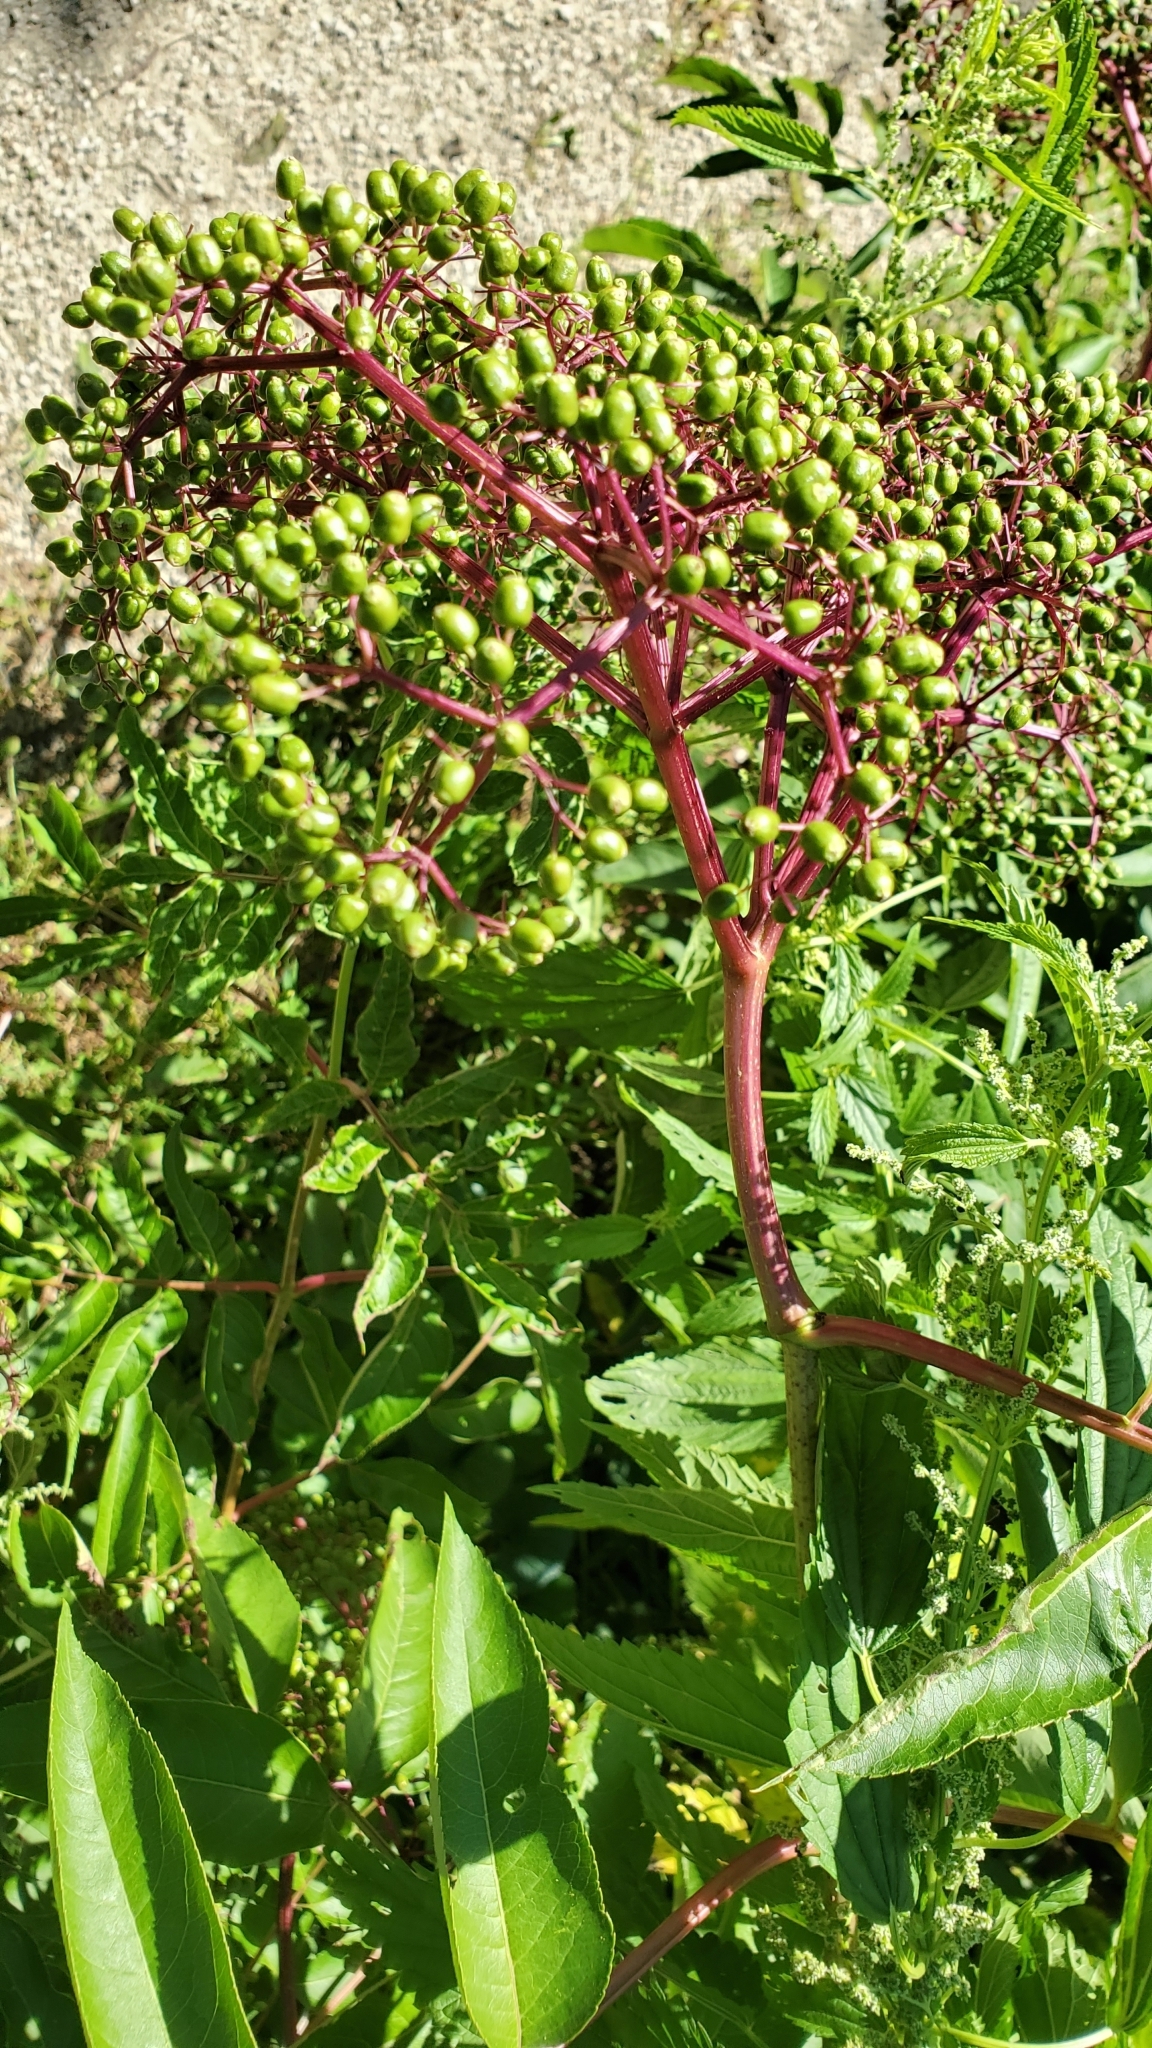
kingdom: Plantae
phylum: Tracheophyta
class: Magnoliopsida
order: Dipsacales
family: Viburnaceae
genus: Sambucus
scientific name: Sambucus canadensis
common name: American elder
